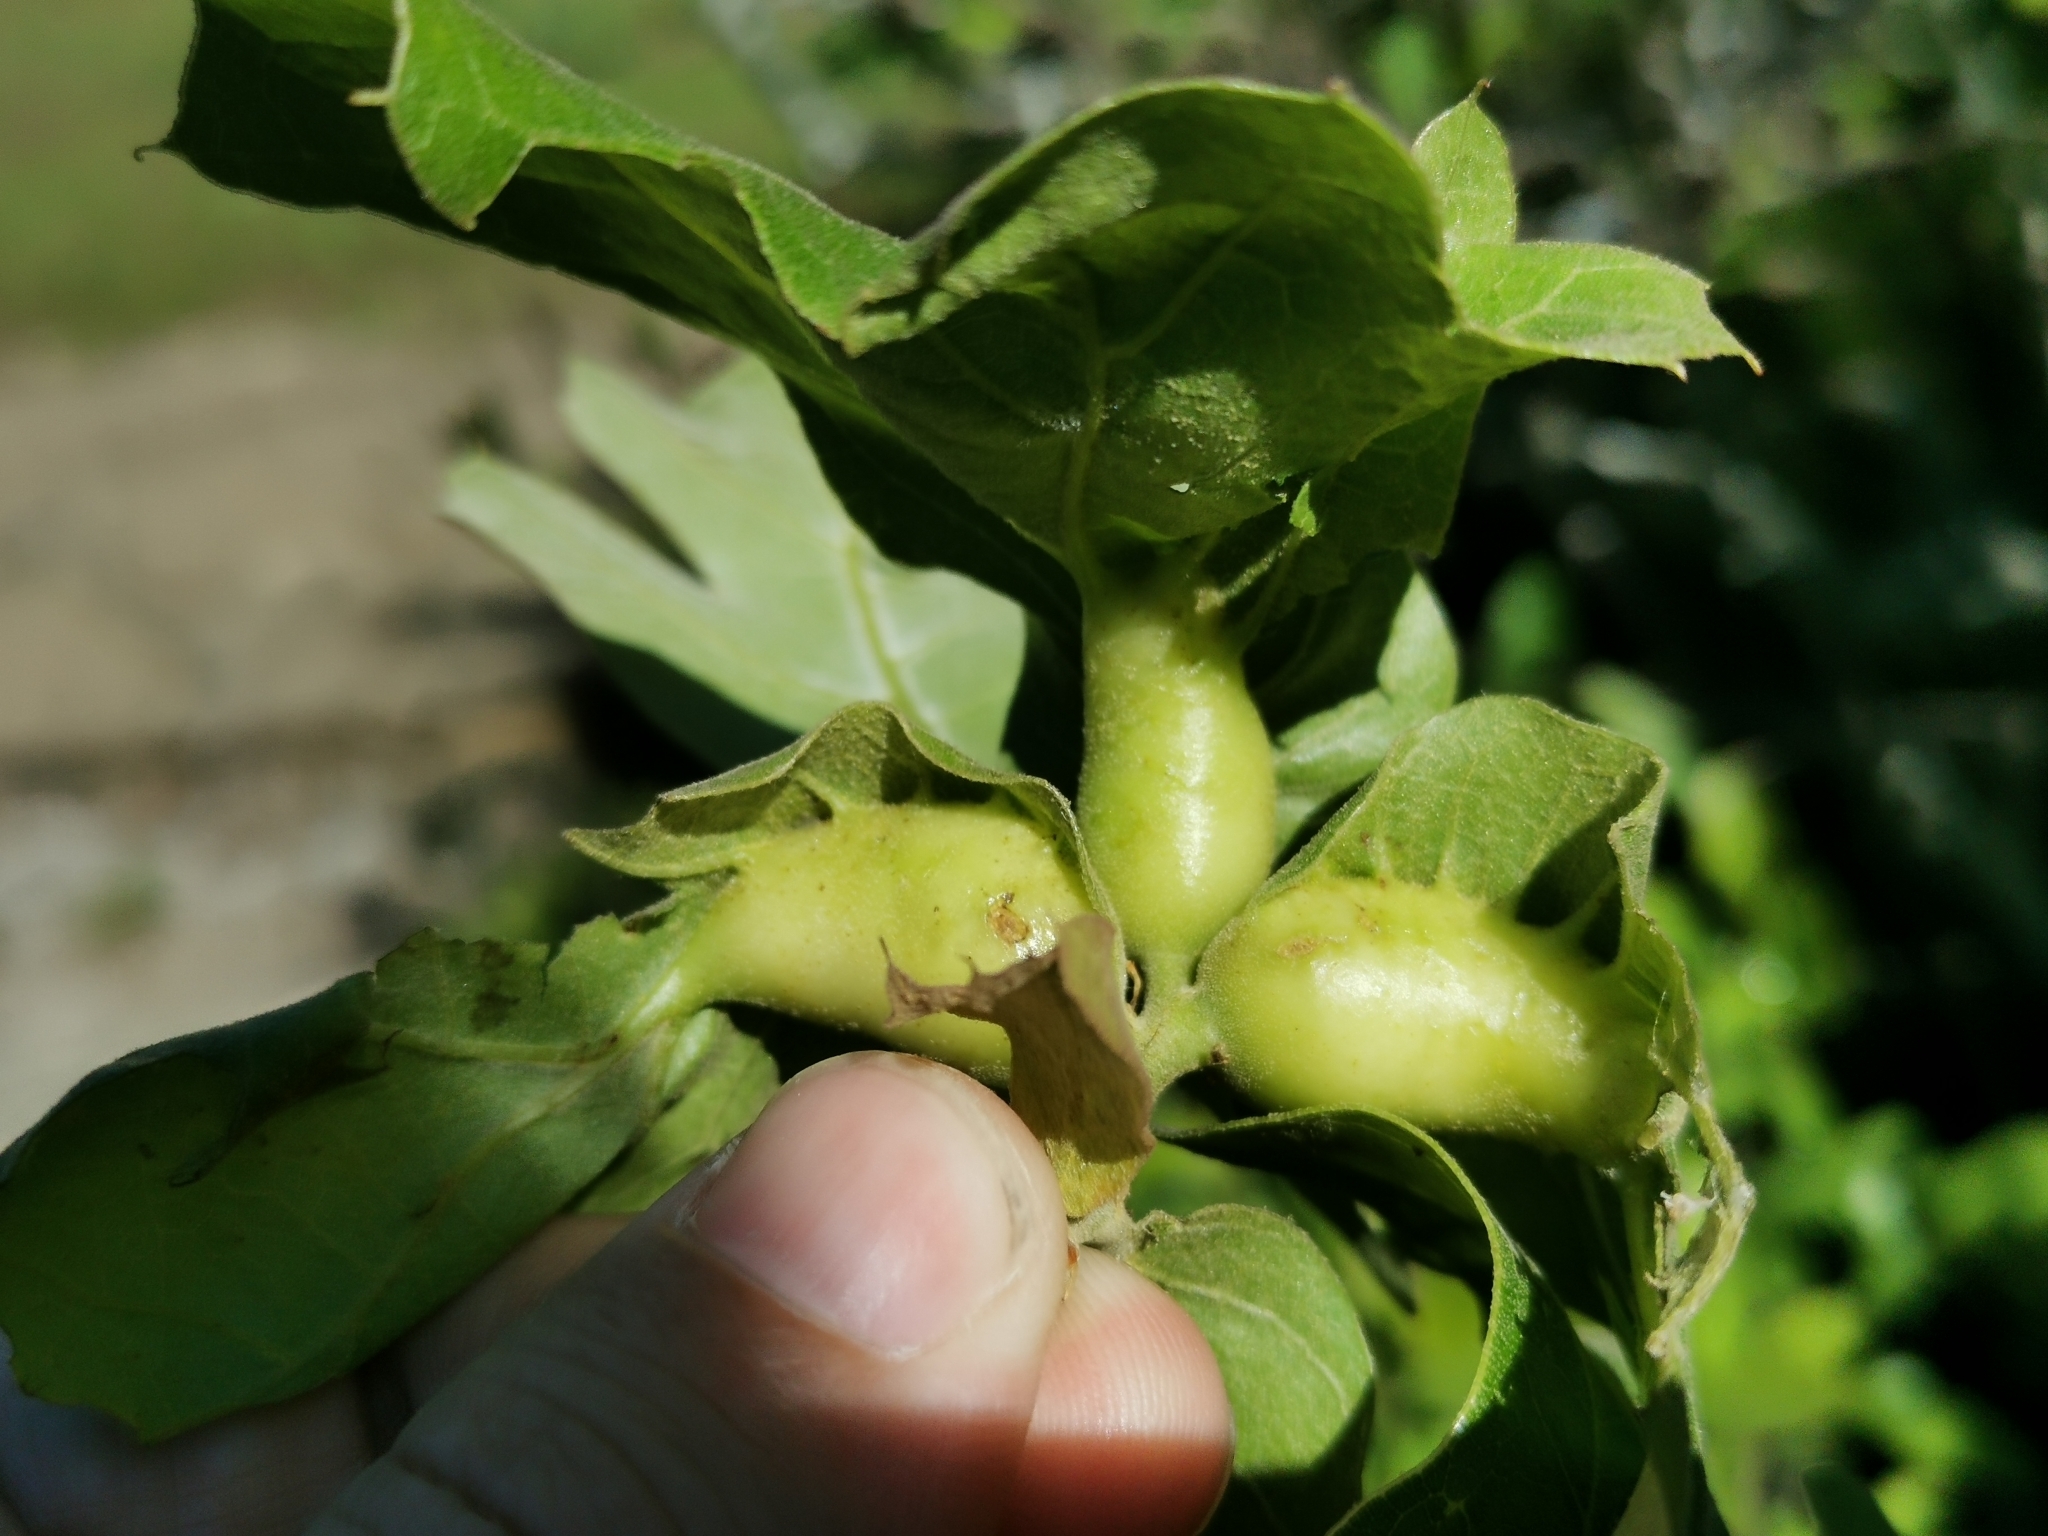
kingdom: Animalia
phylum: Arthropoda
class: Insecta
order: Hymenoptera
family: Cynipidae
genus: Melikaiella
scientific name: Melikaiella tumifica
